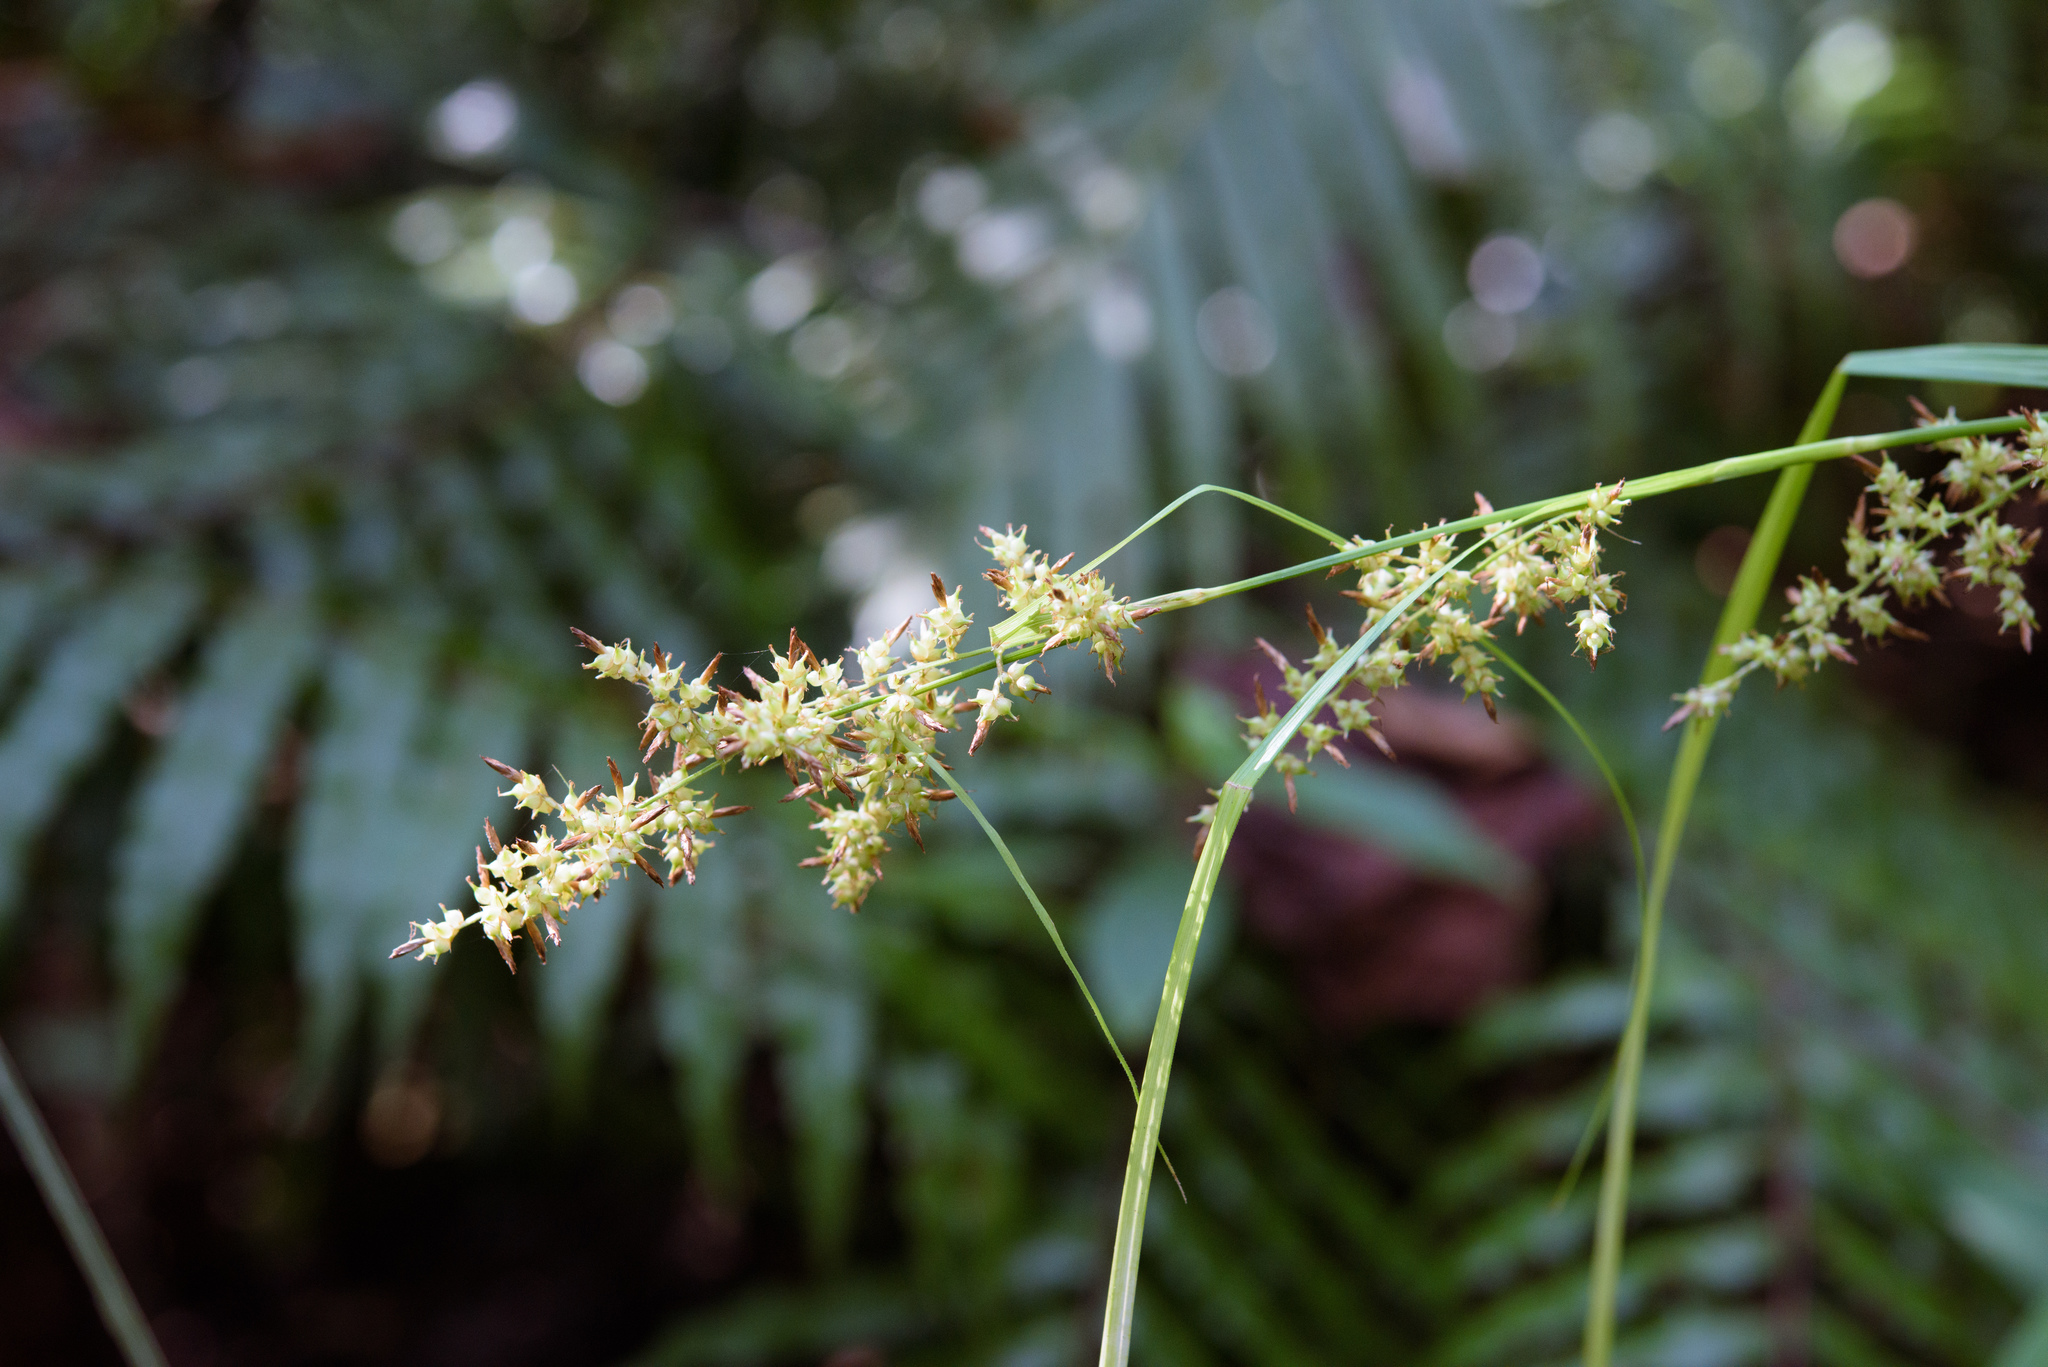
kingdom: Plantae
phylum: Tracheophyta
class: Liliopsida
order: Poales
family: Cyperaceae
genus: Carex
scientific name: Carex cruciata
